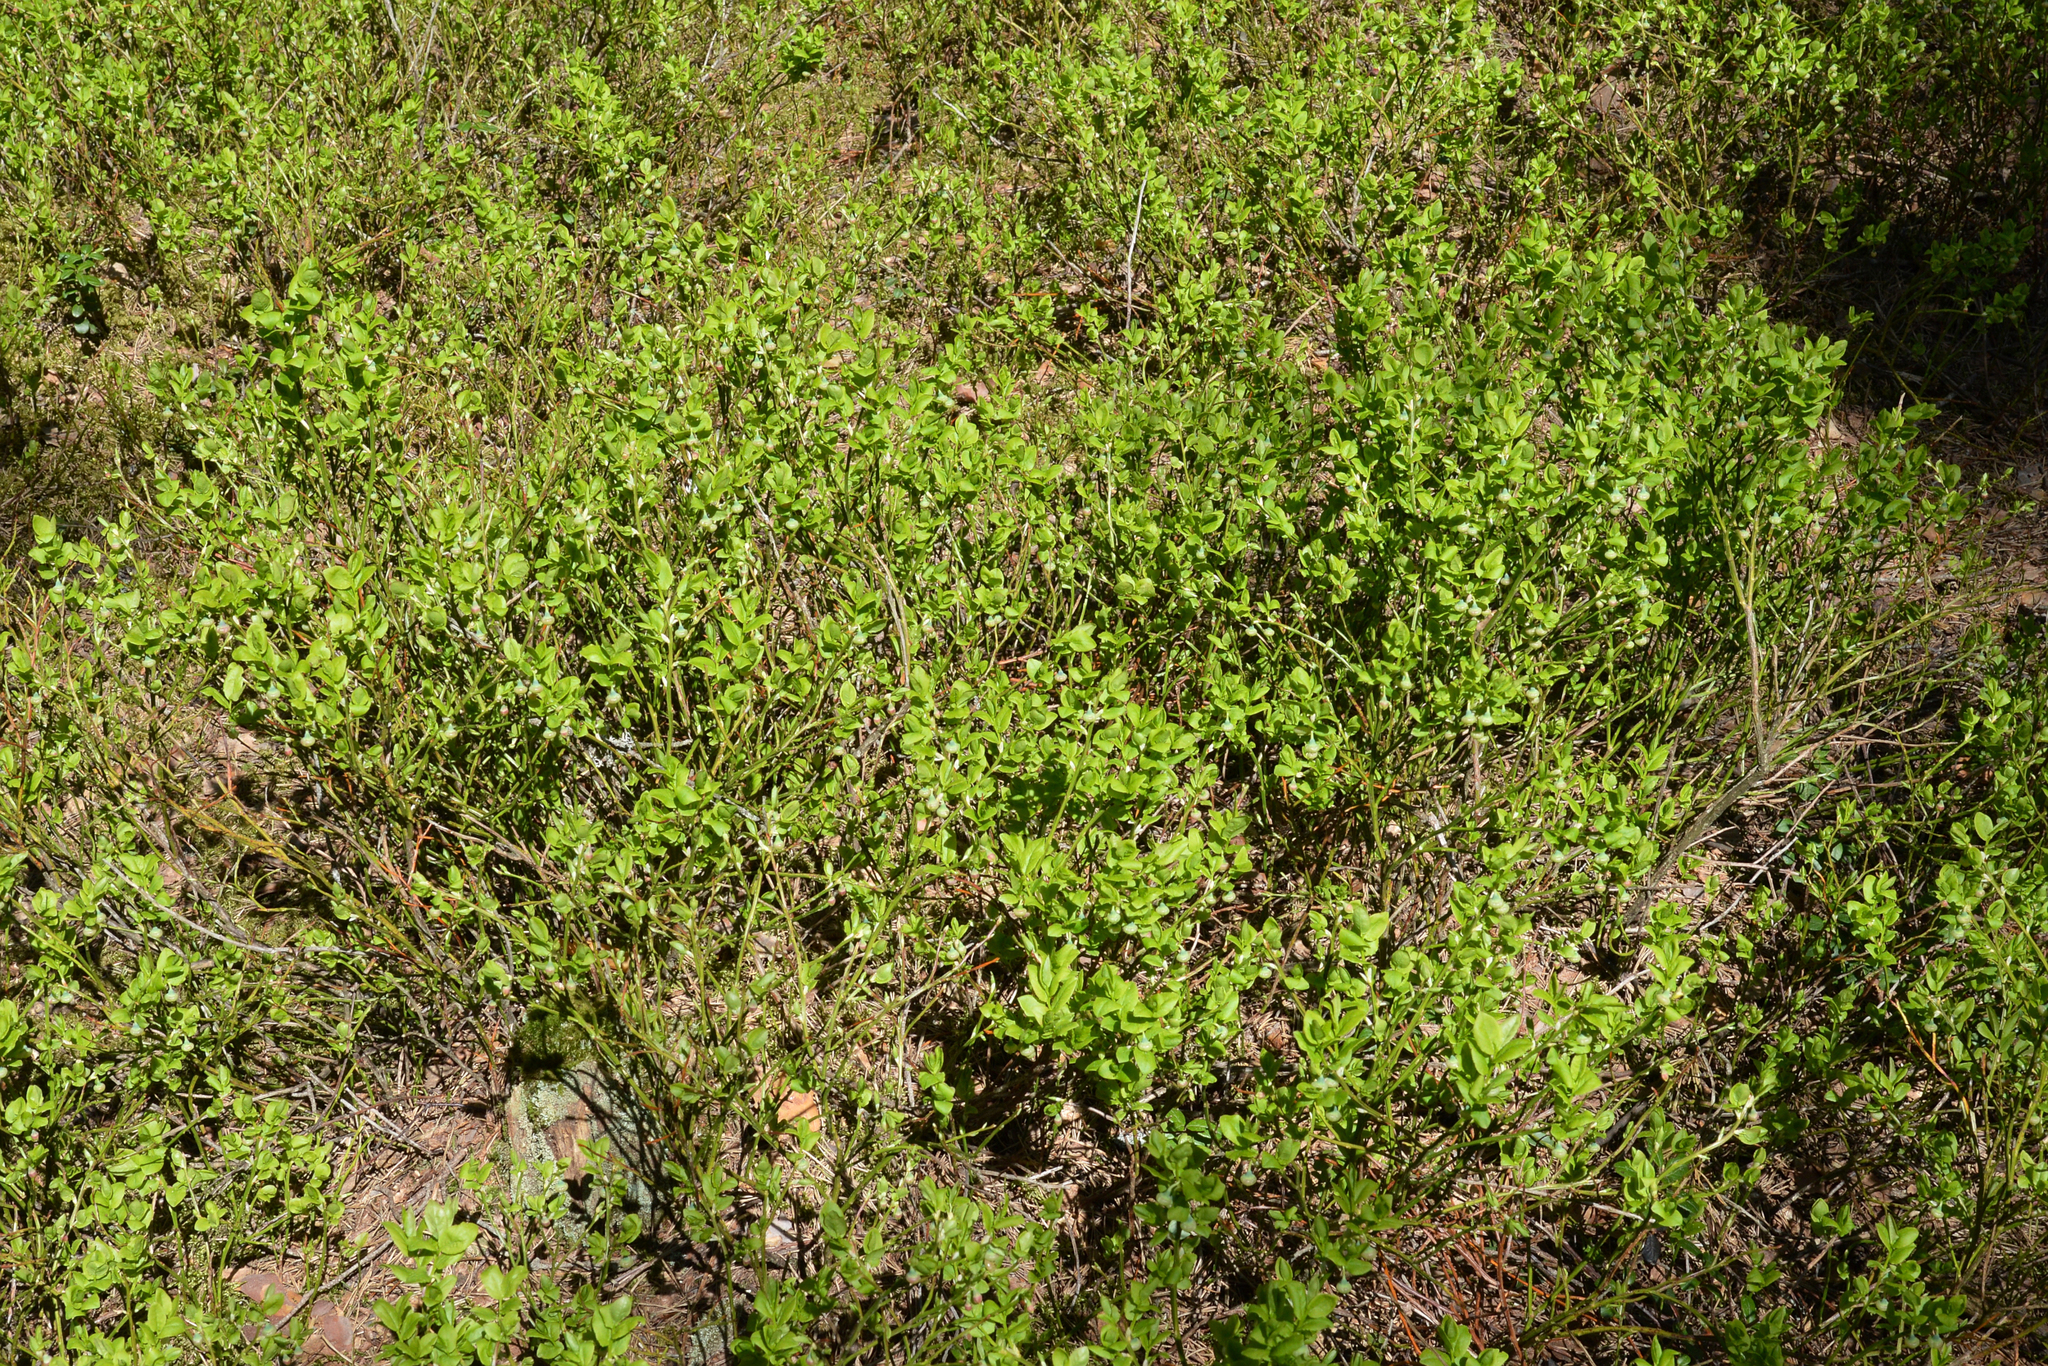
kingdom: Plantae
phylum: Tracheophyta
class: Magnoliopsida
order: Ericales
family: Ericaceae
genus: Vaccinium
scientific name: Vaccinium myrtillus
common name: Bilberry
